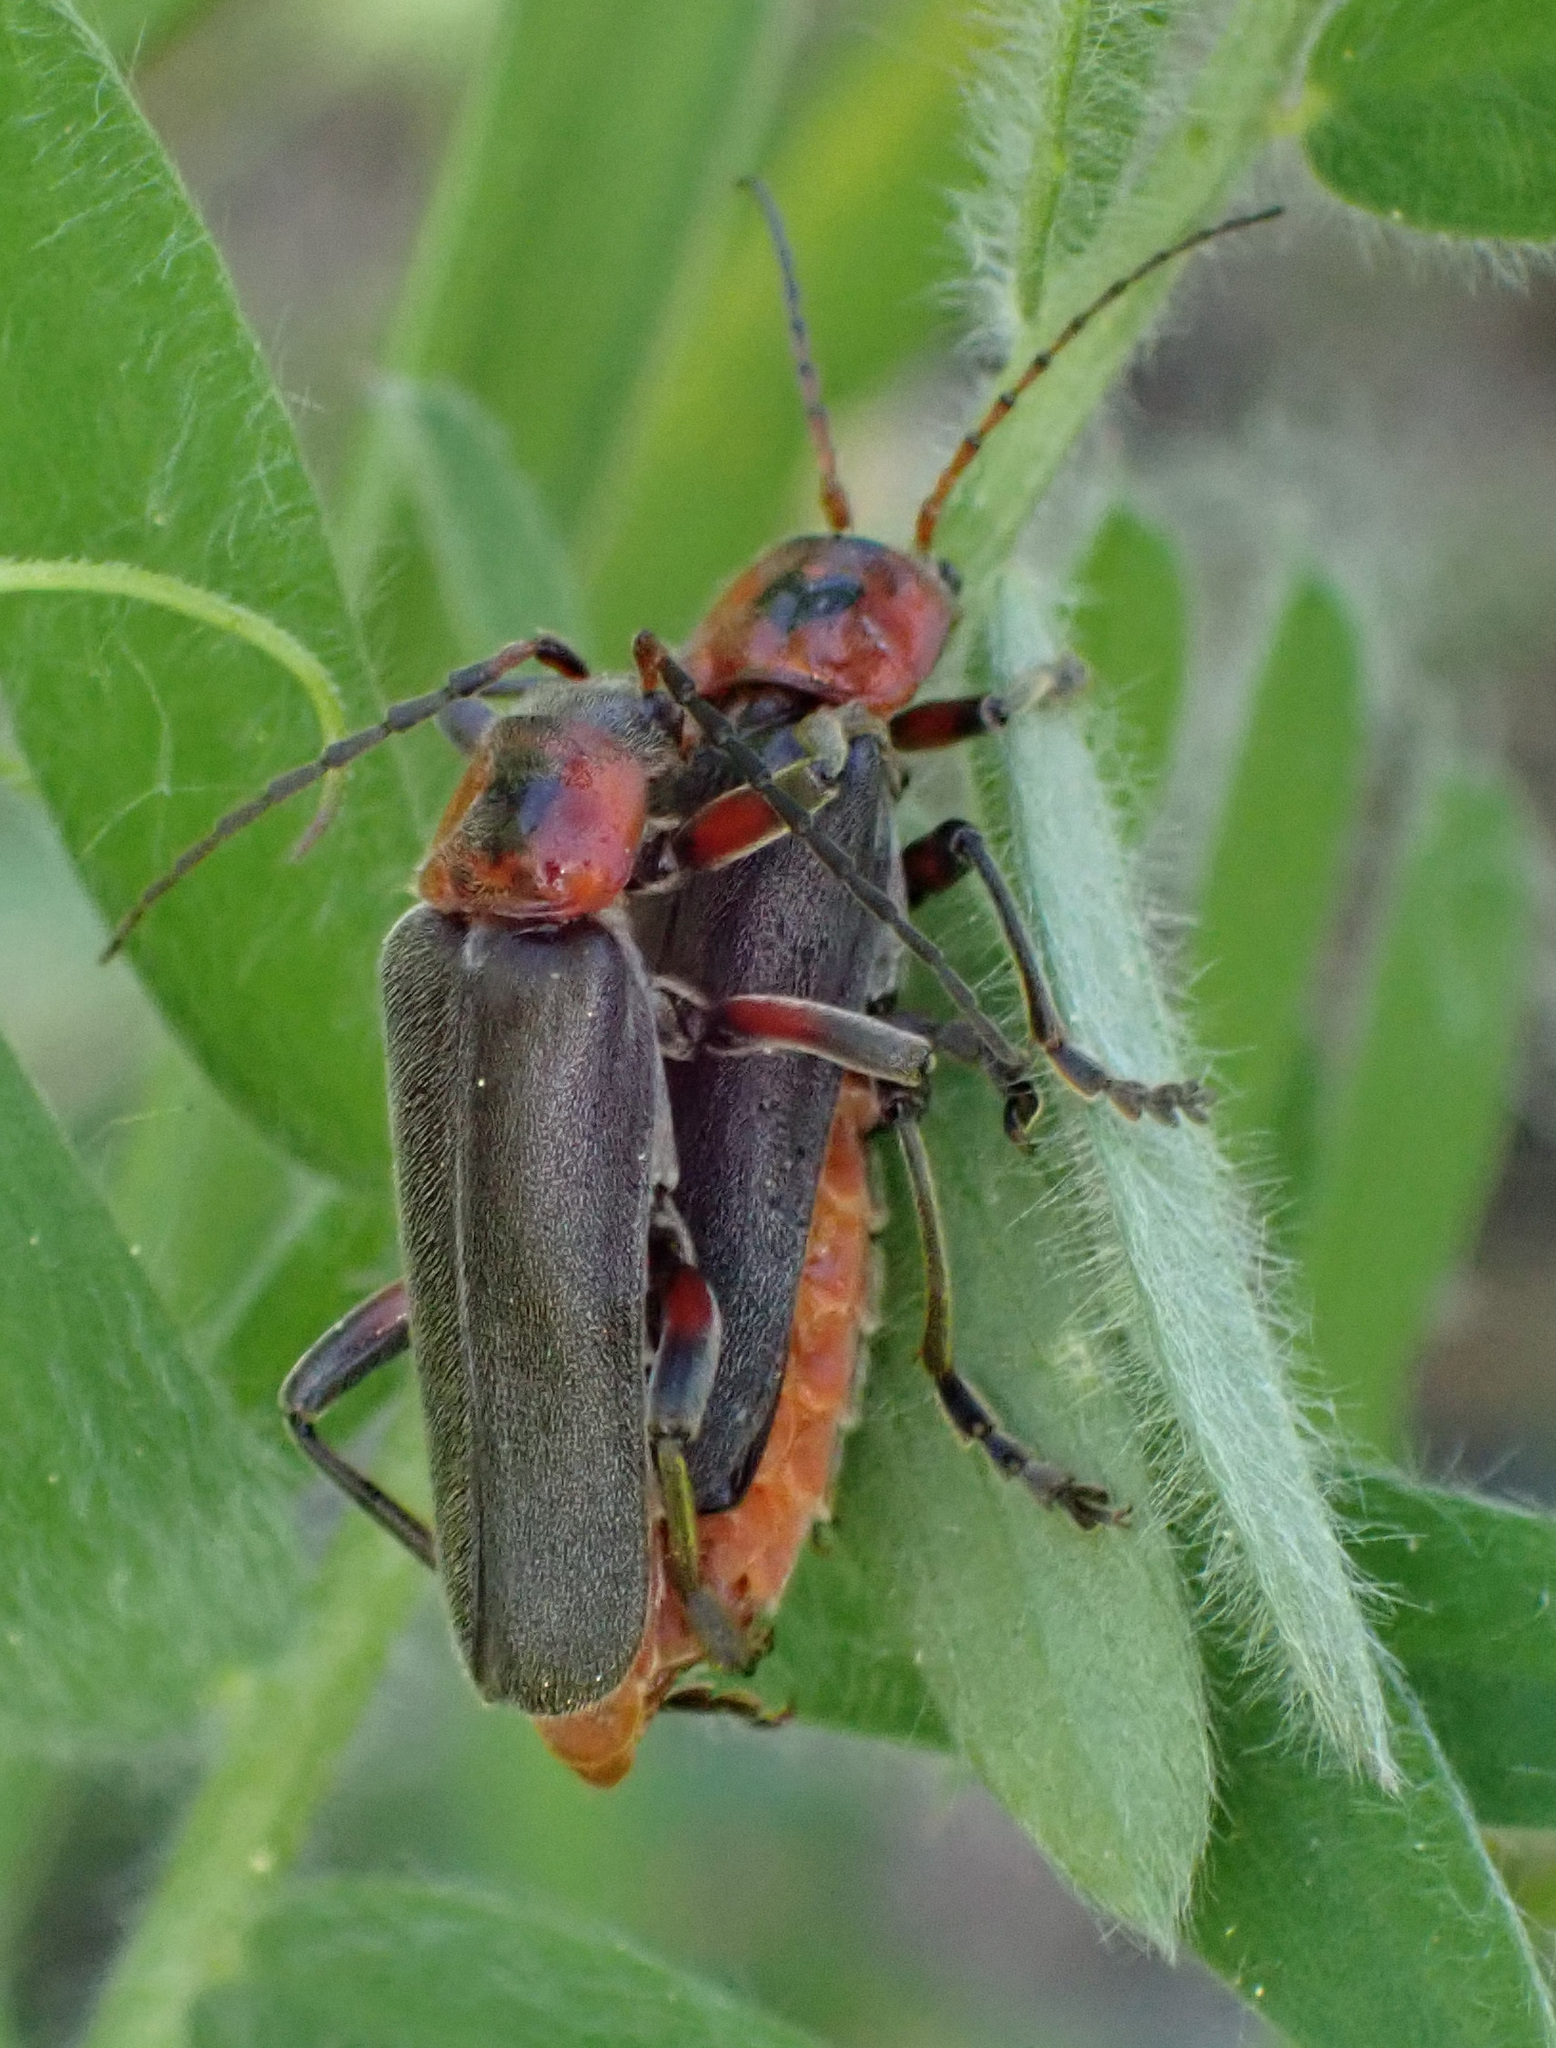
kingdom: Animalia
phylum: Arthropoda
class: Insecta
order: Coleoptera
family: Cantharidae
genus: Cantharis
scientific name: Cantharis rustica
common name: Soldier beetle
